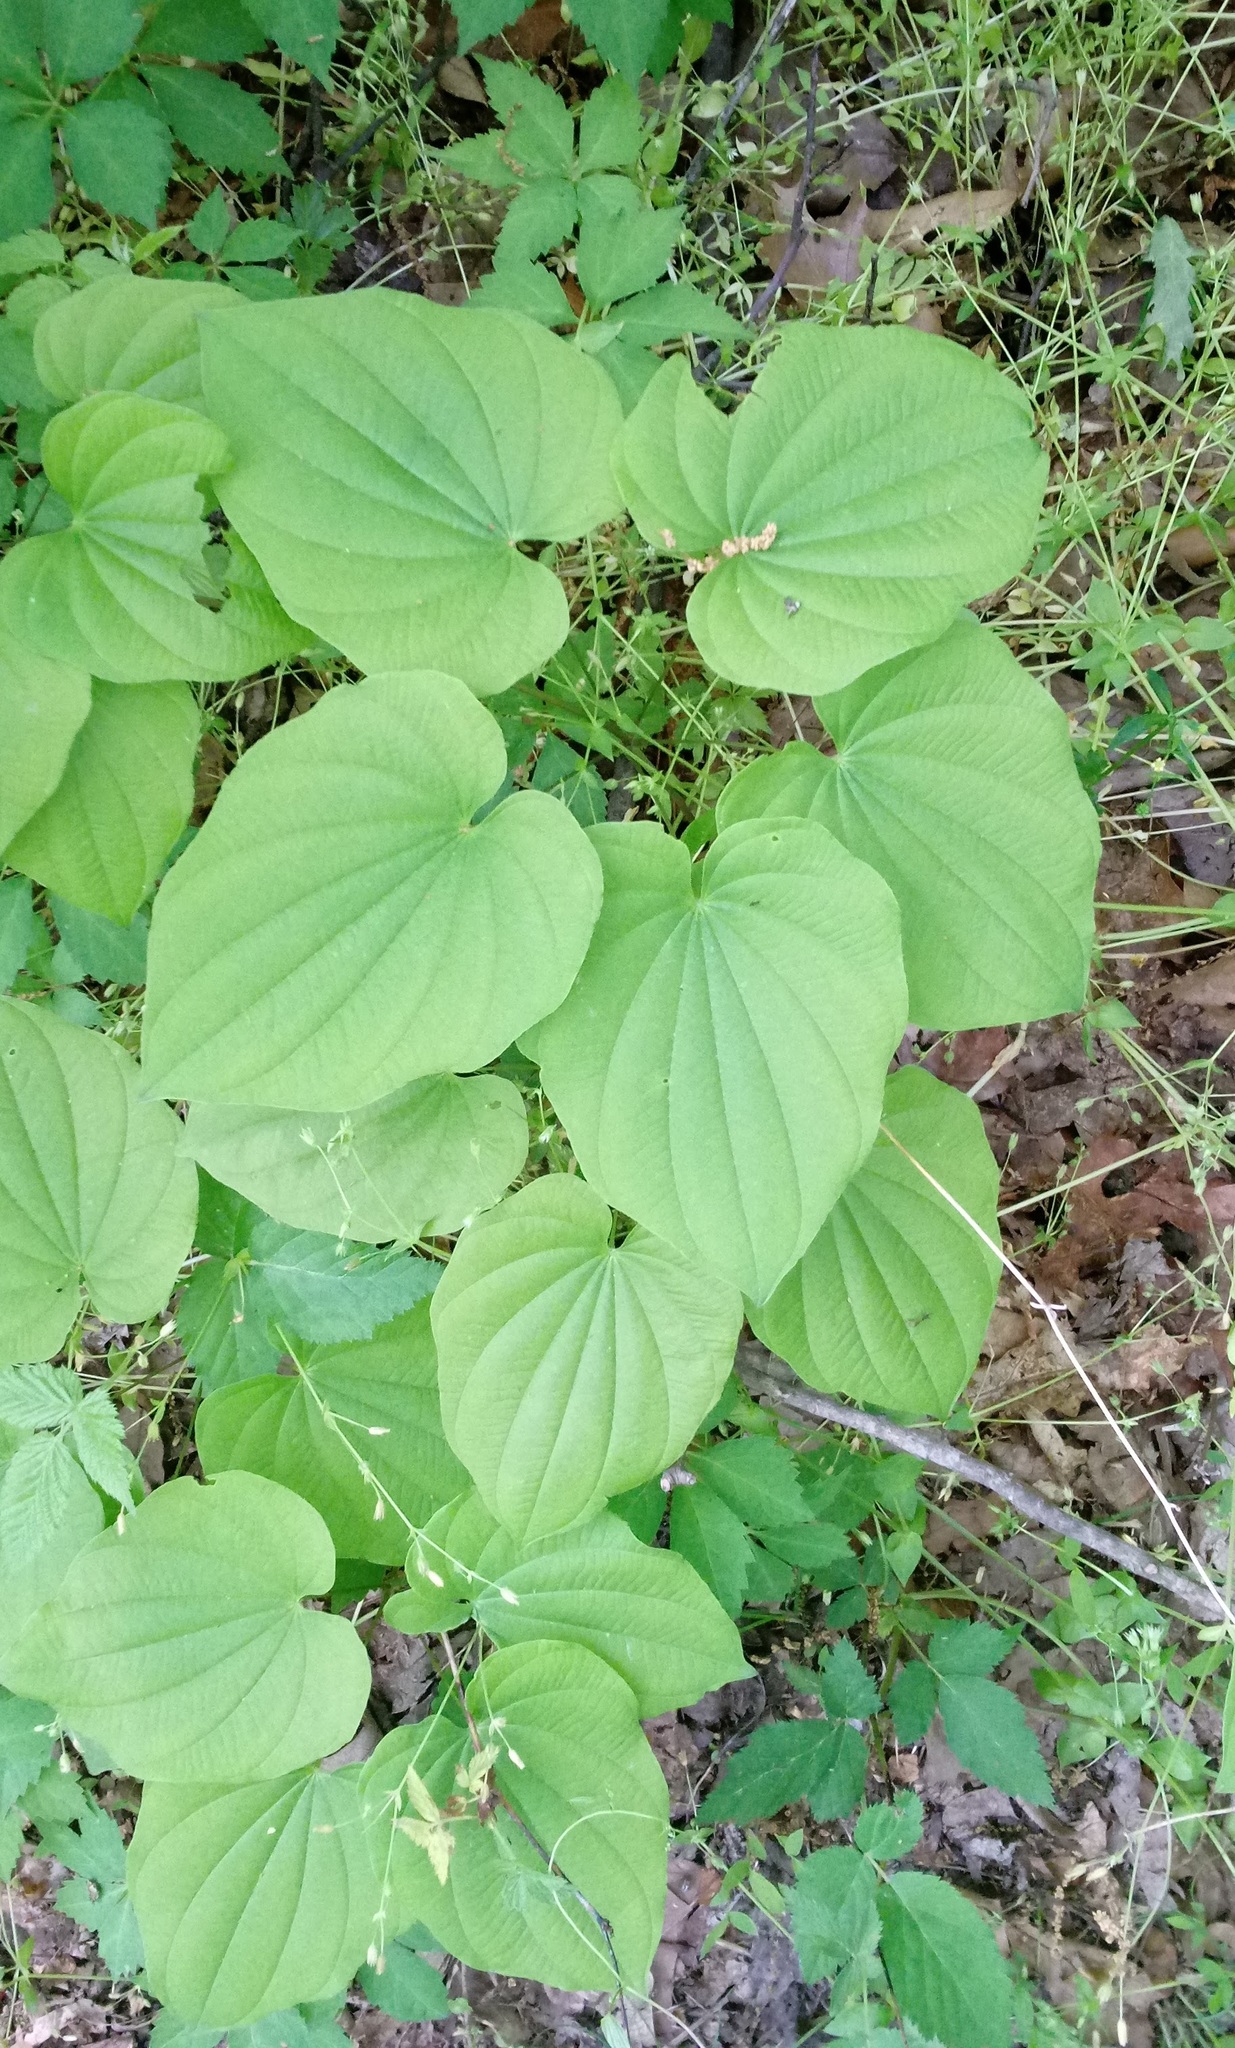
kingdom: Plantae
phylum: Tracheophyta
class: Liliopsida
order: Dioscoreales
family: Dioscoreaceae
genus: Dioscorea
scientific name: Dioscorea villosa
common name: Wild yam
